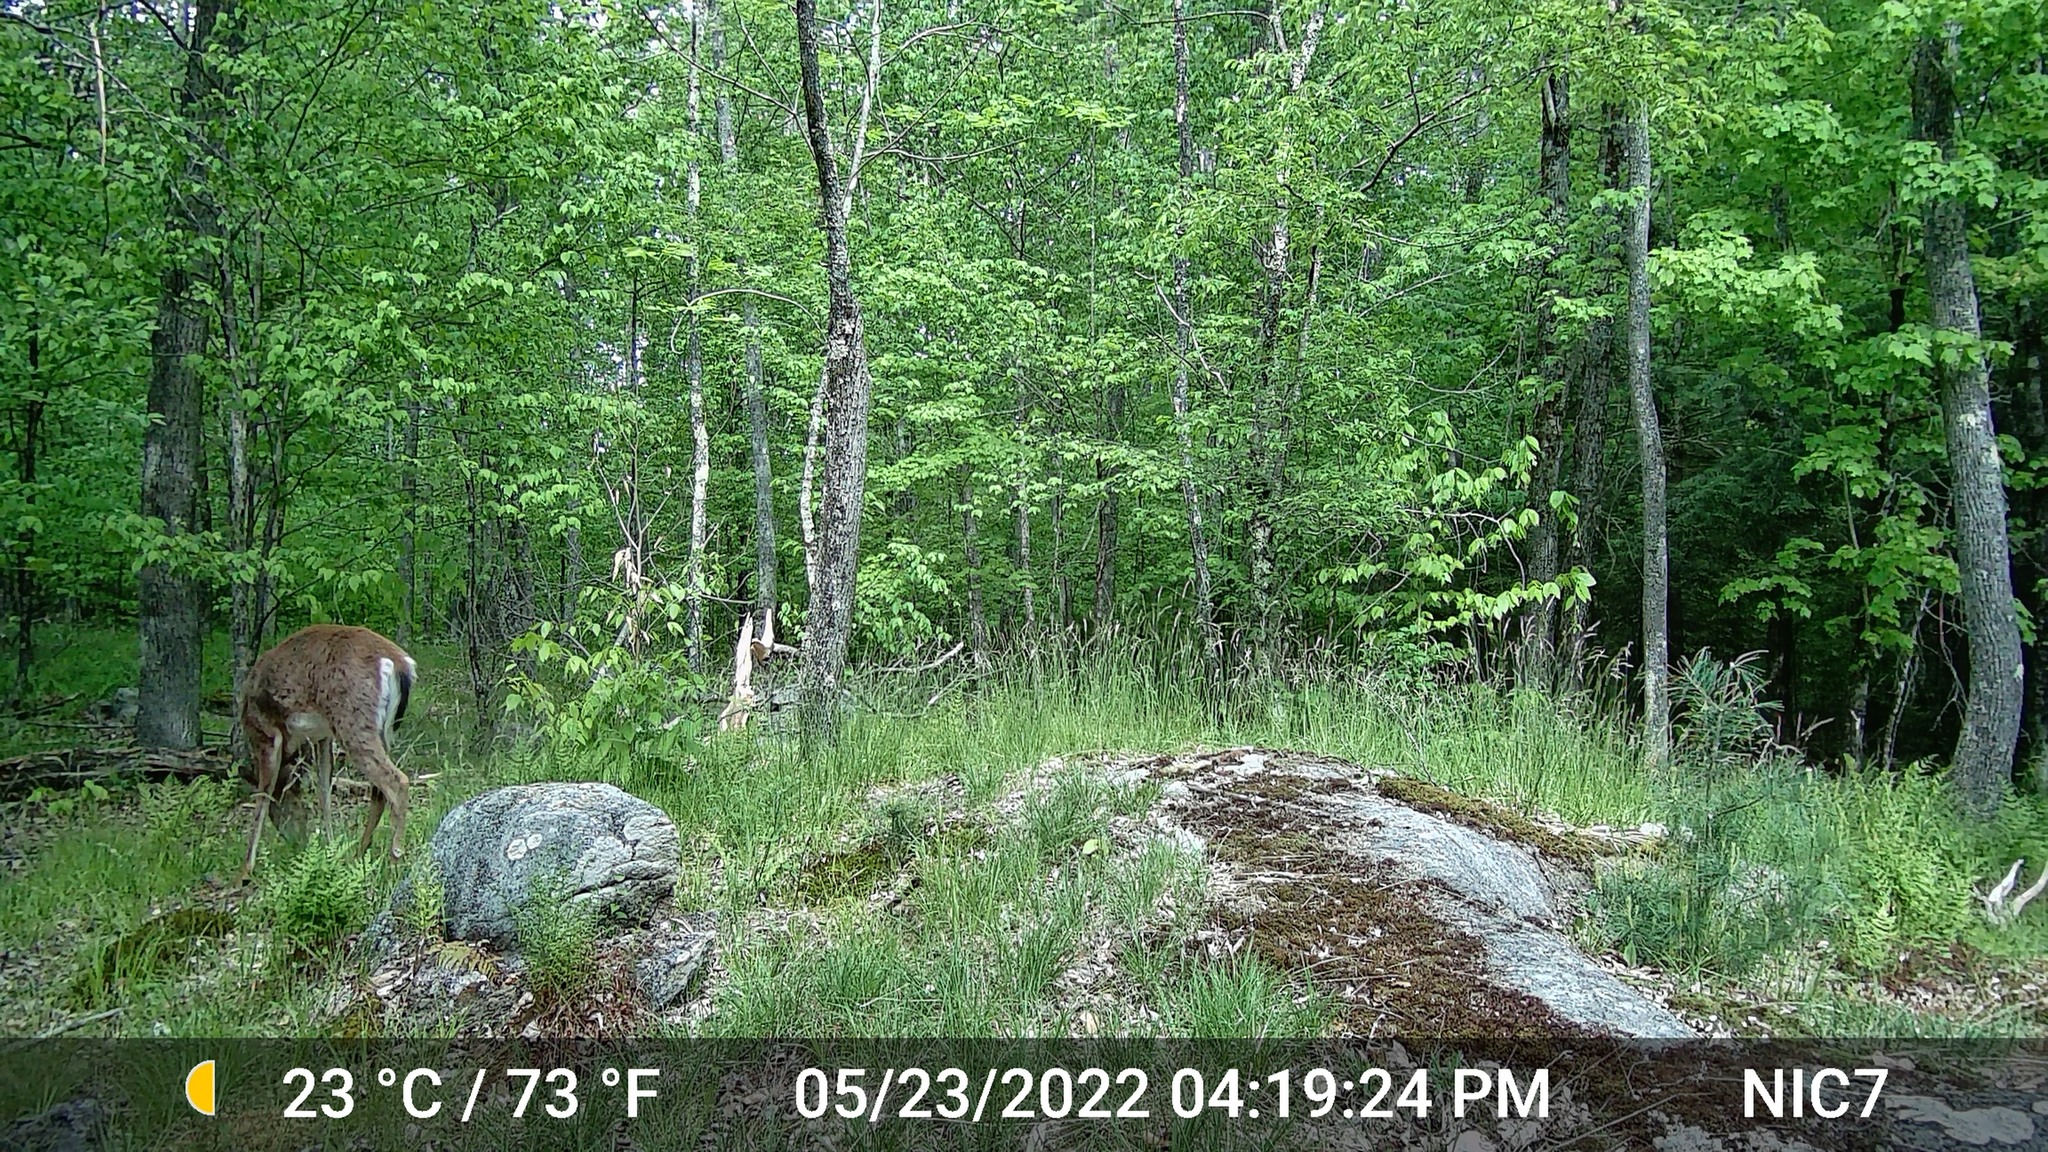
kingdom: Animalia
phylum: Chordata
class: Mammalia
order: Artiodactyla
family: Cervidae
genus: Odocoileus
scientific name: Odocoileus virginianus
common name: White-tailed deer
